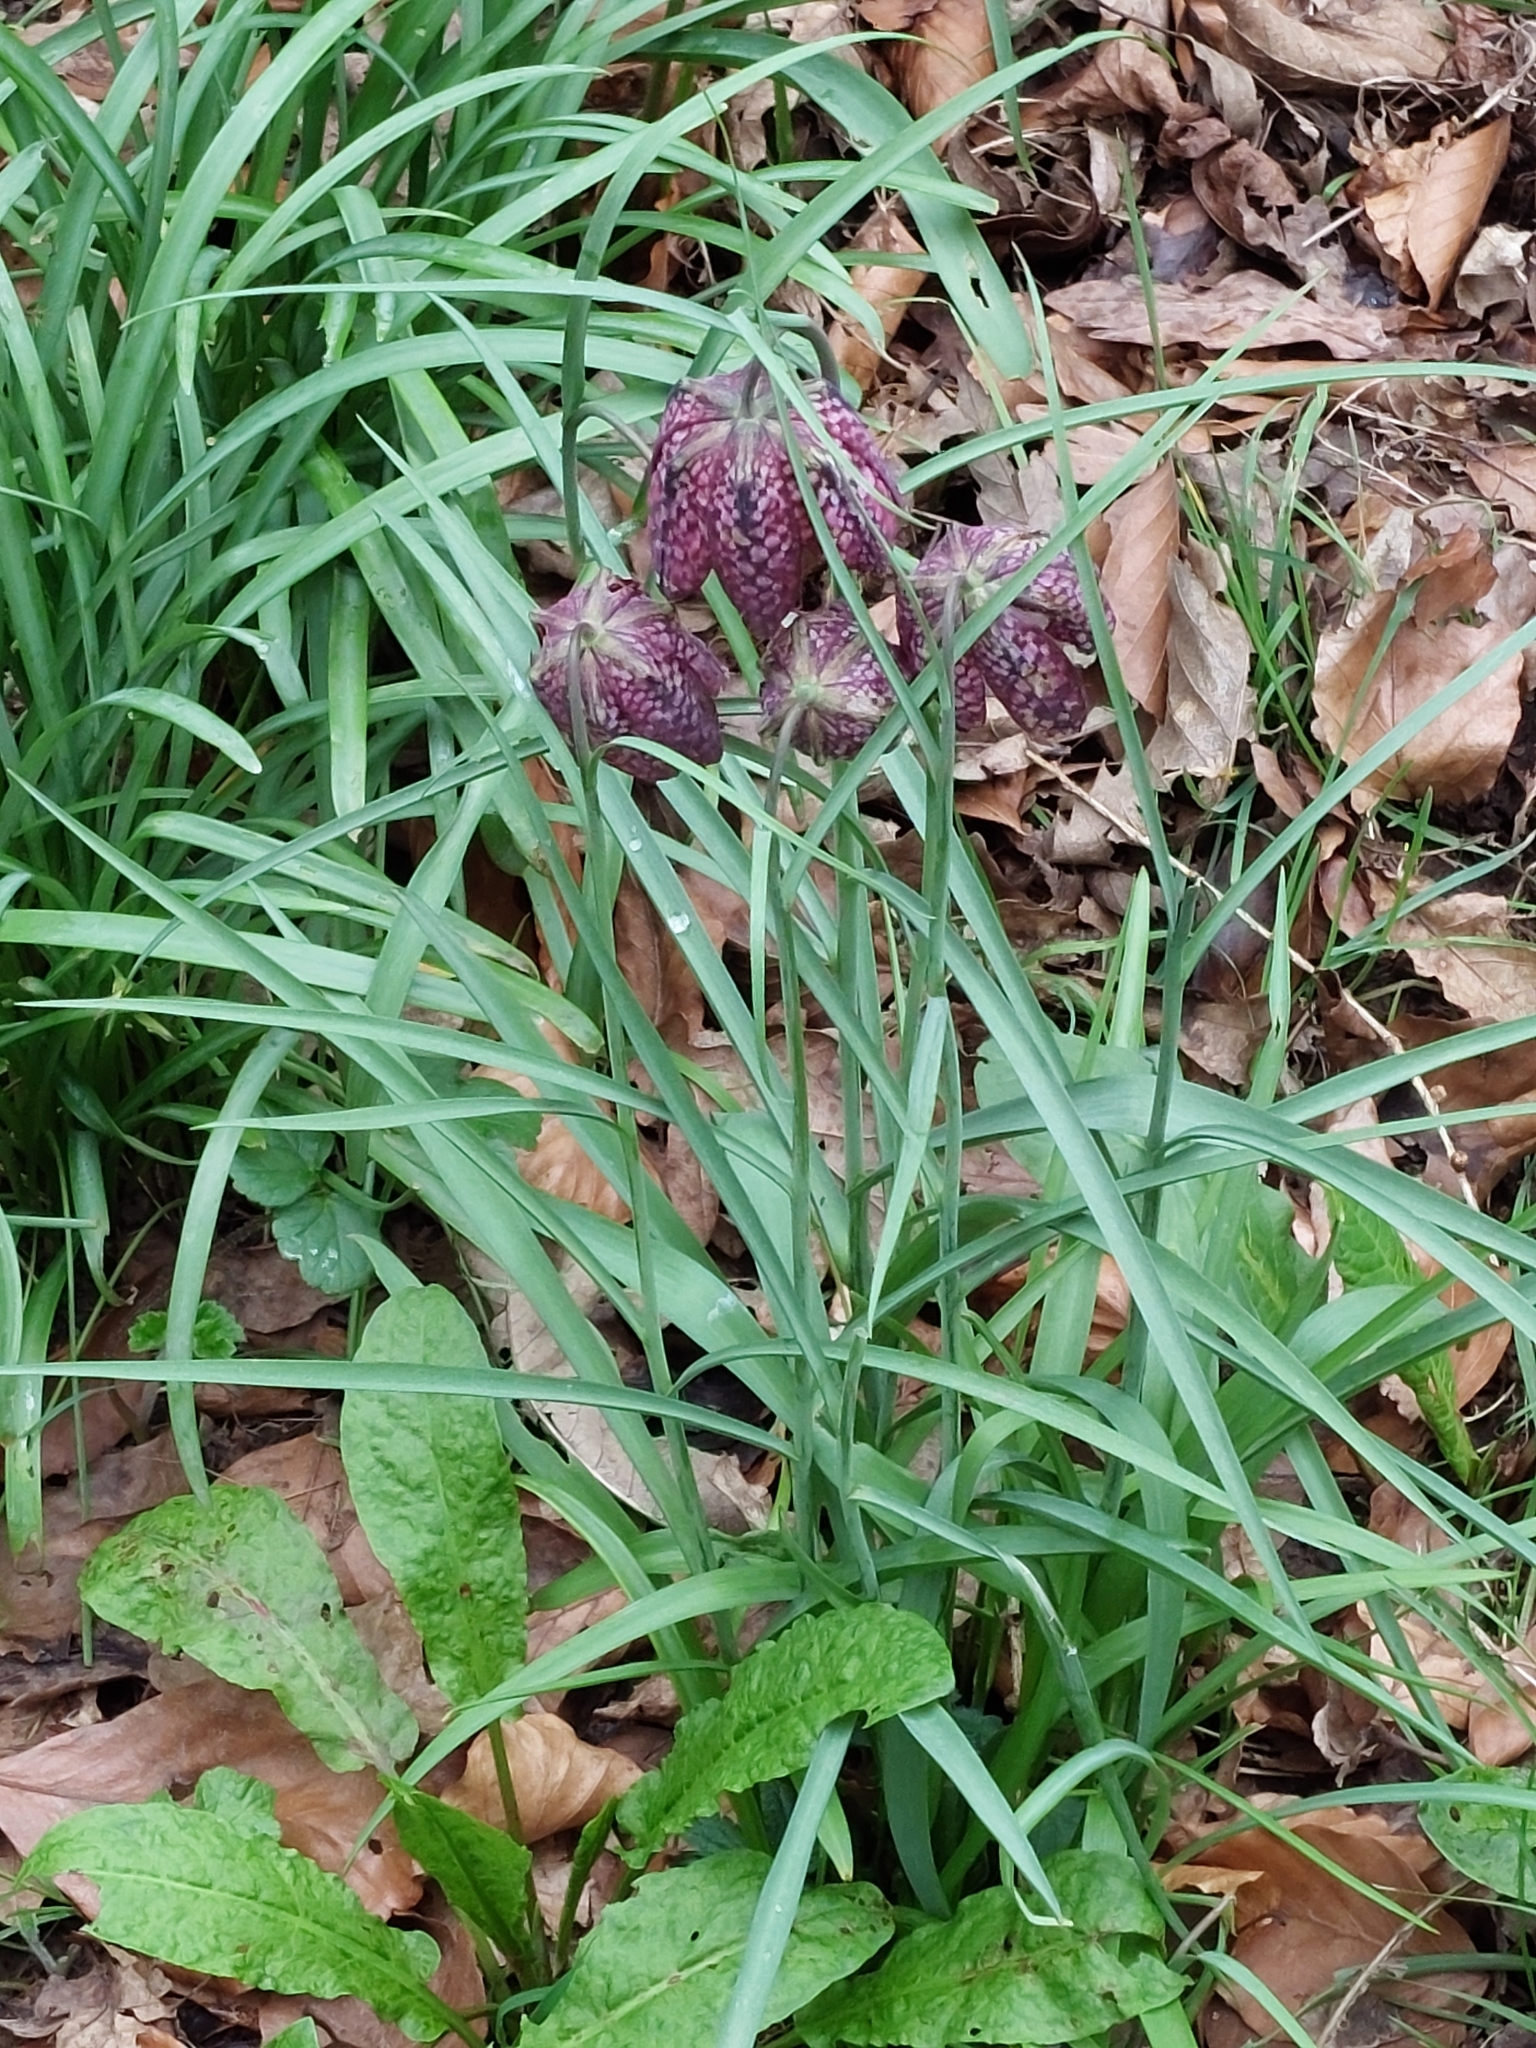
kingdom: Plantae
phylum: Tracheophyta
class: Liliopsida
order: Liliales
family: Liliaceae
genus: Fritillaria
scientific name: Fritillaria meleagris
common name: Fritillary
